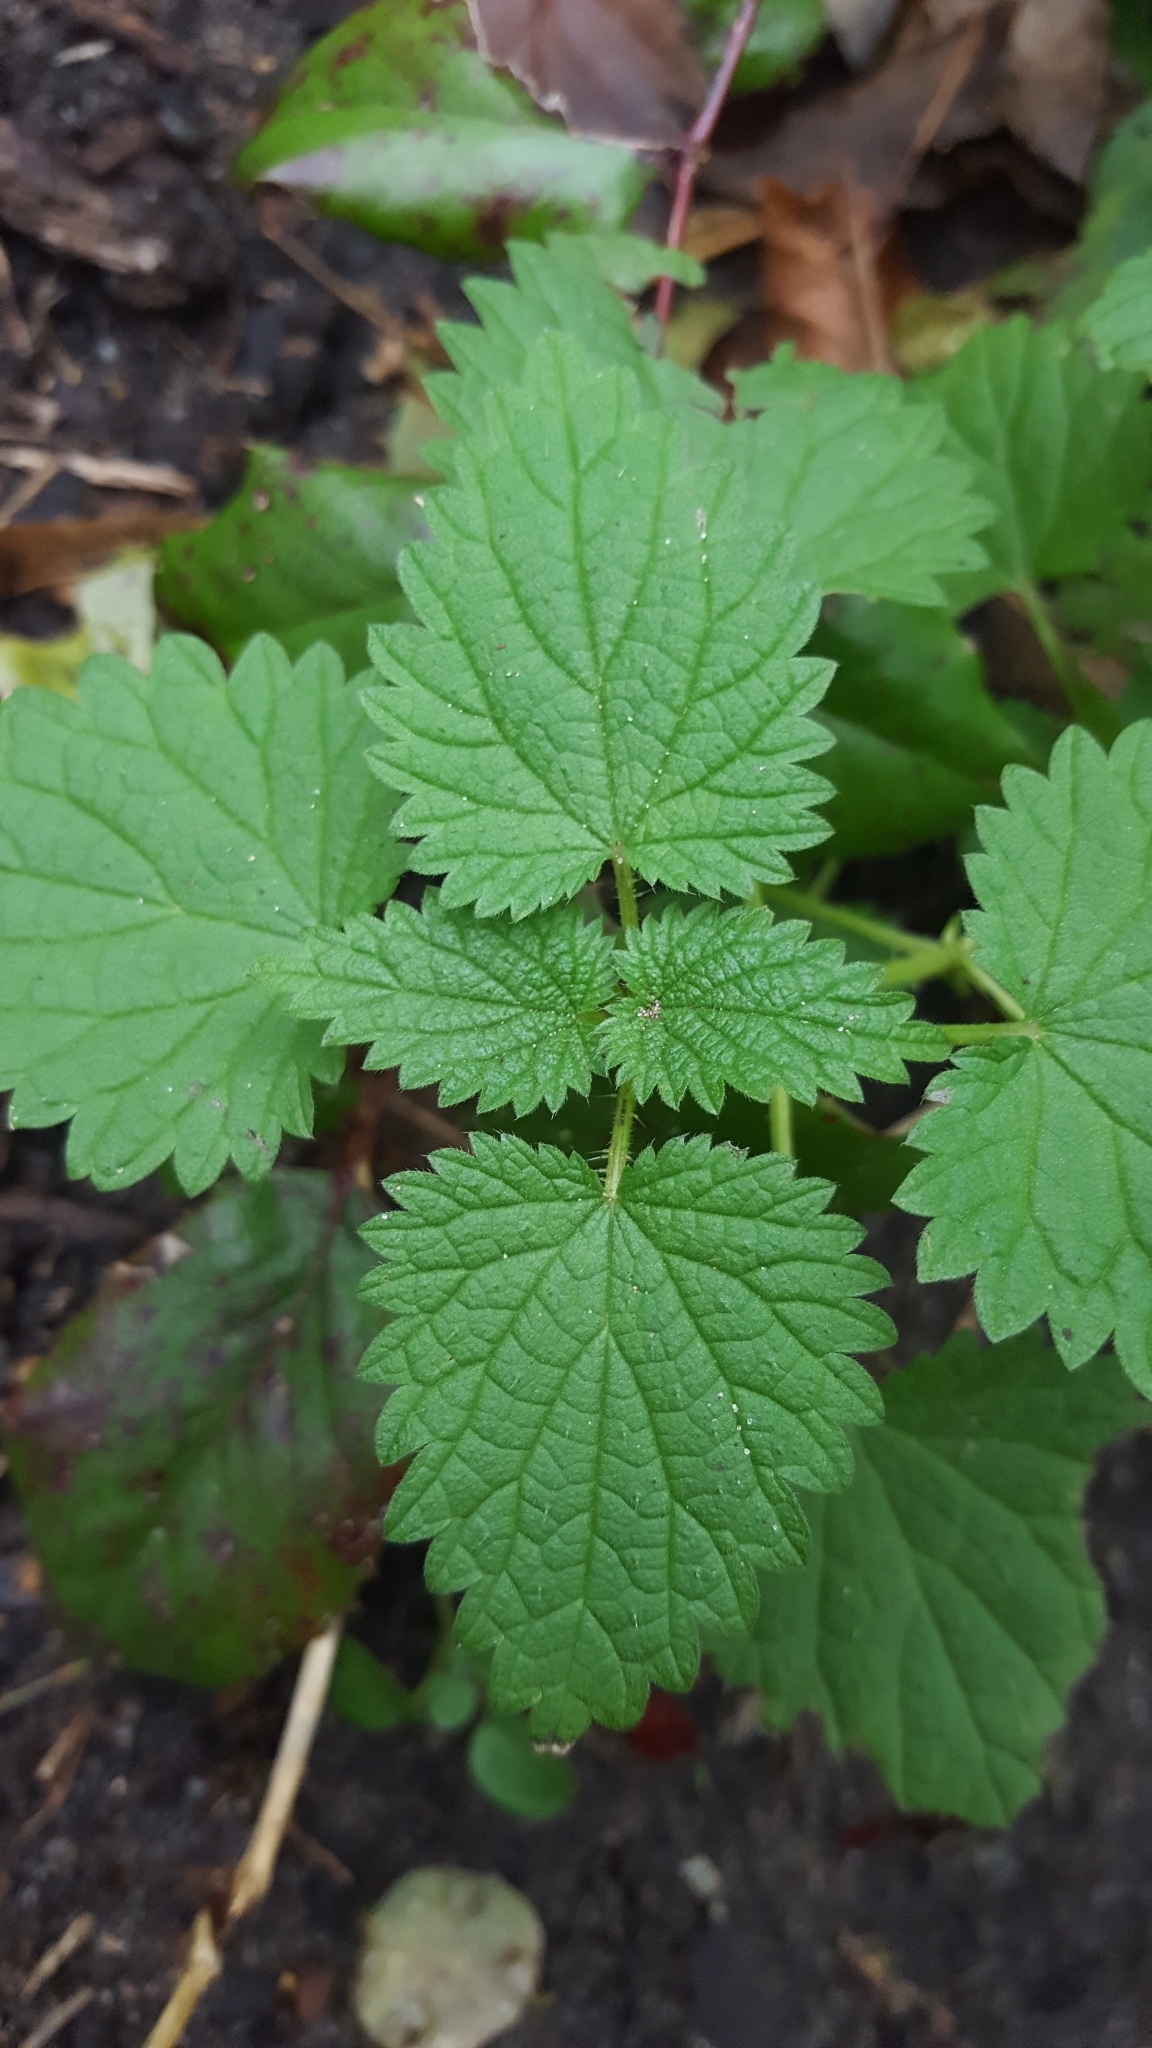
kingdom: Plantae
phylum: Tracheophyta
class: Magnoliopsida
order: Rosales
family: Urticaceae
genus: Urtica
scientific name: Urtica dioica
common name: Common nettle
